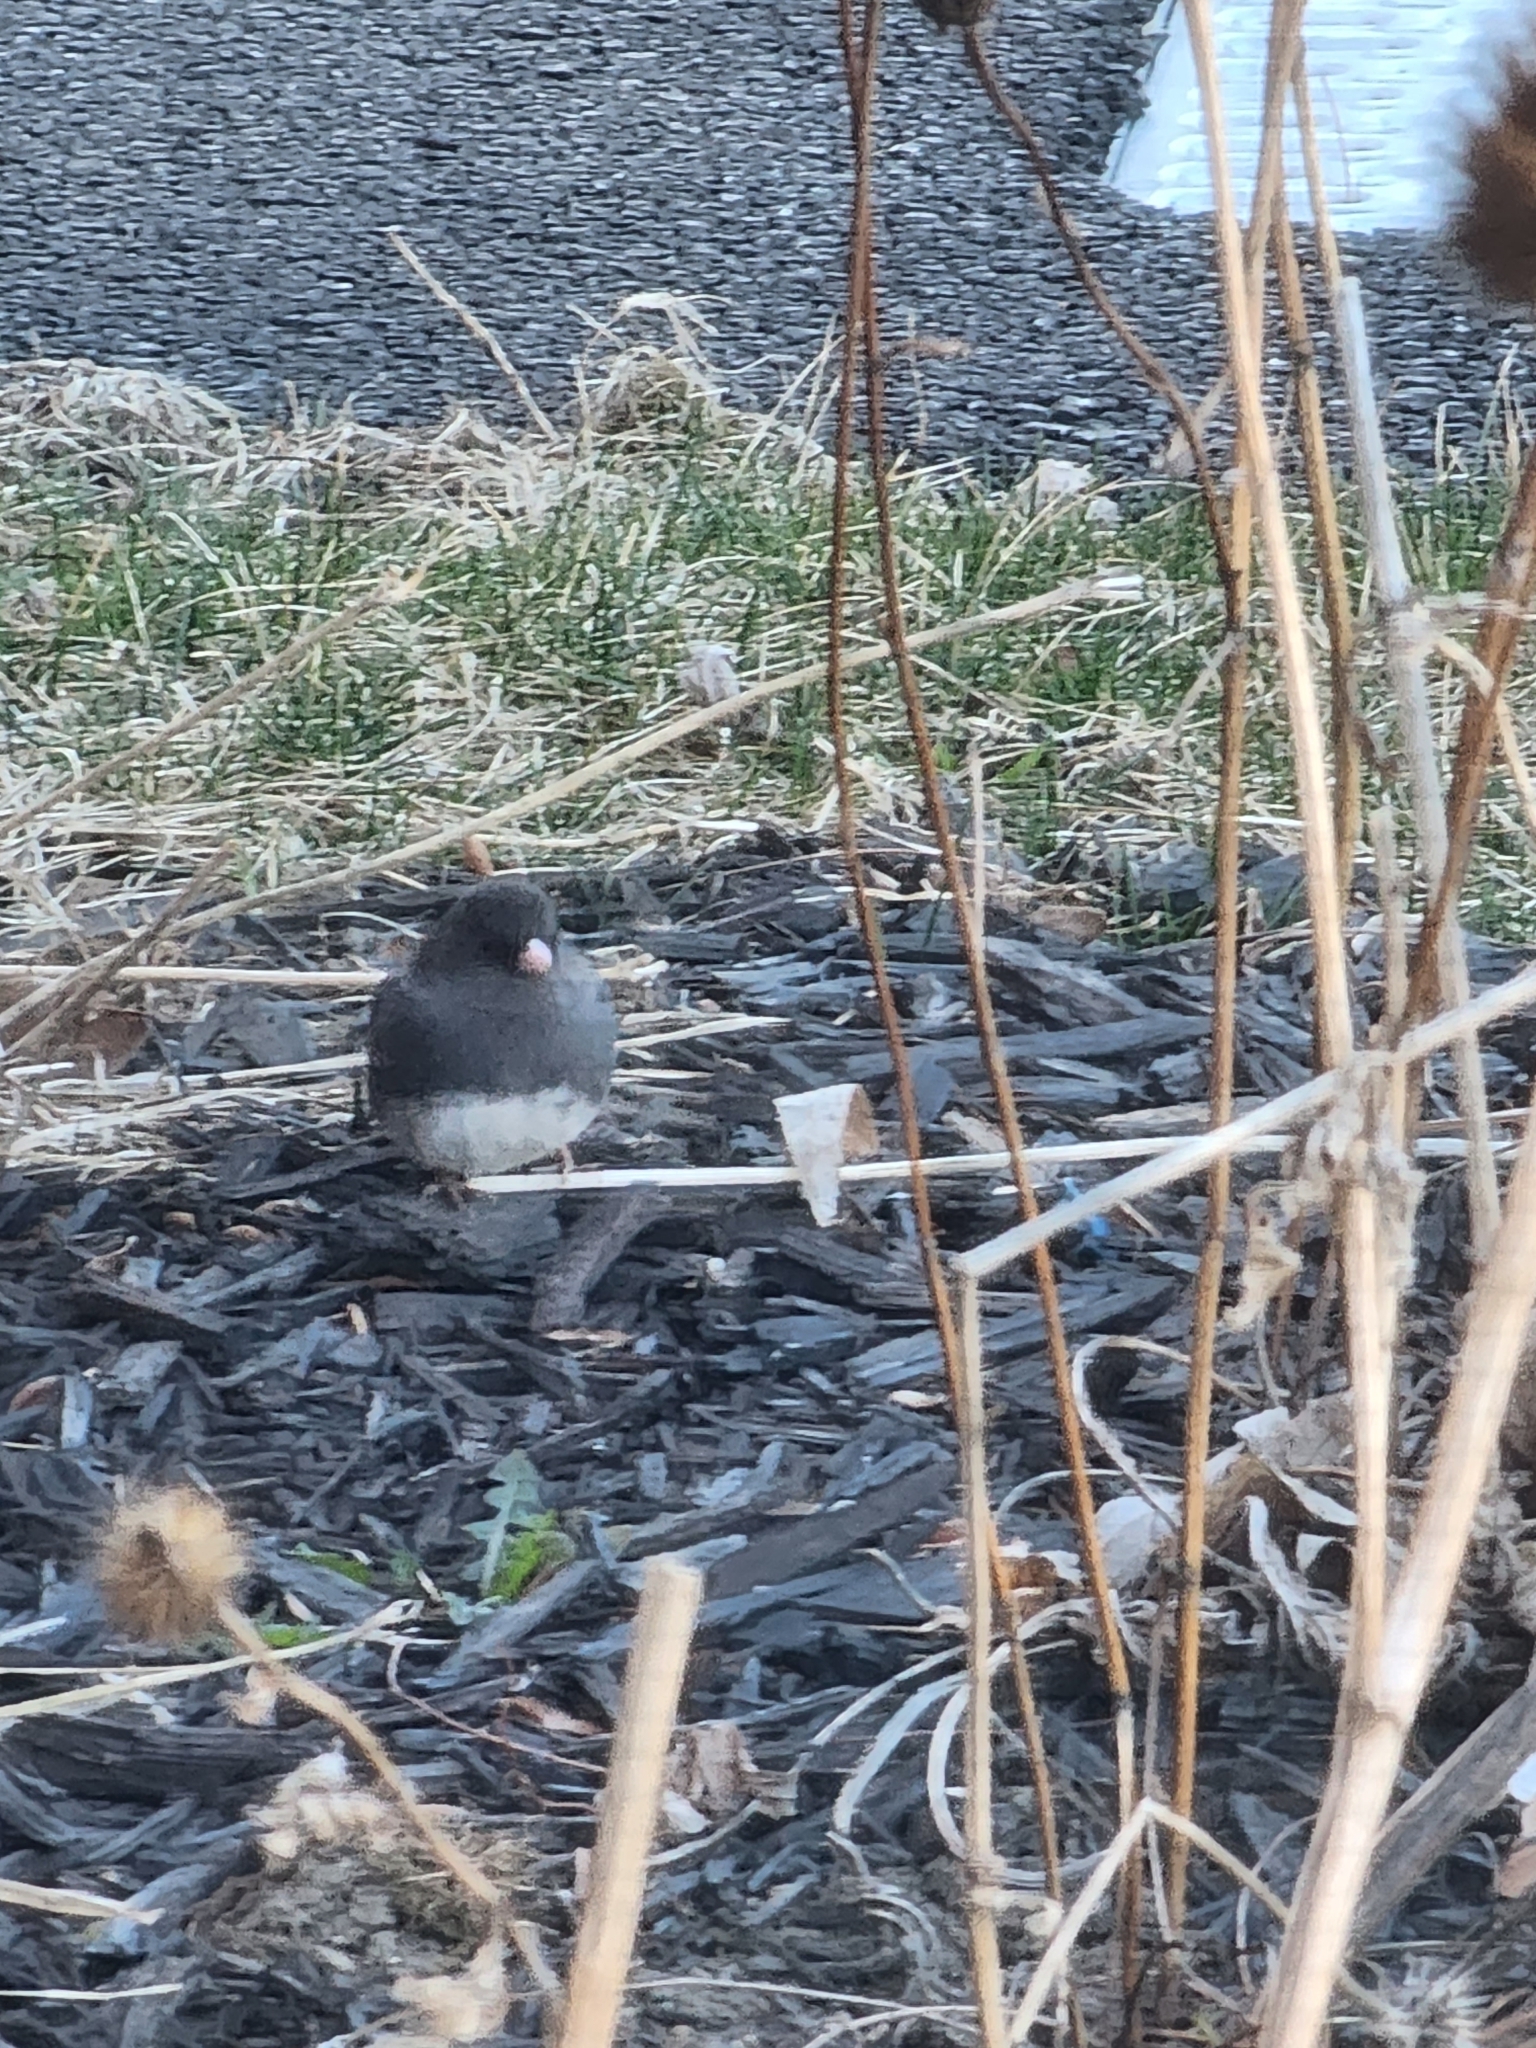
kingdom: Animalia
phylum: Chordata
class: Aves
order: Passeriformes
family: Passerellidae
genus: Junco
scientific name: Junco hyemalis
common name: Dark-eyed junco
